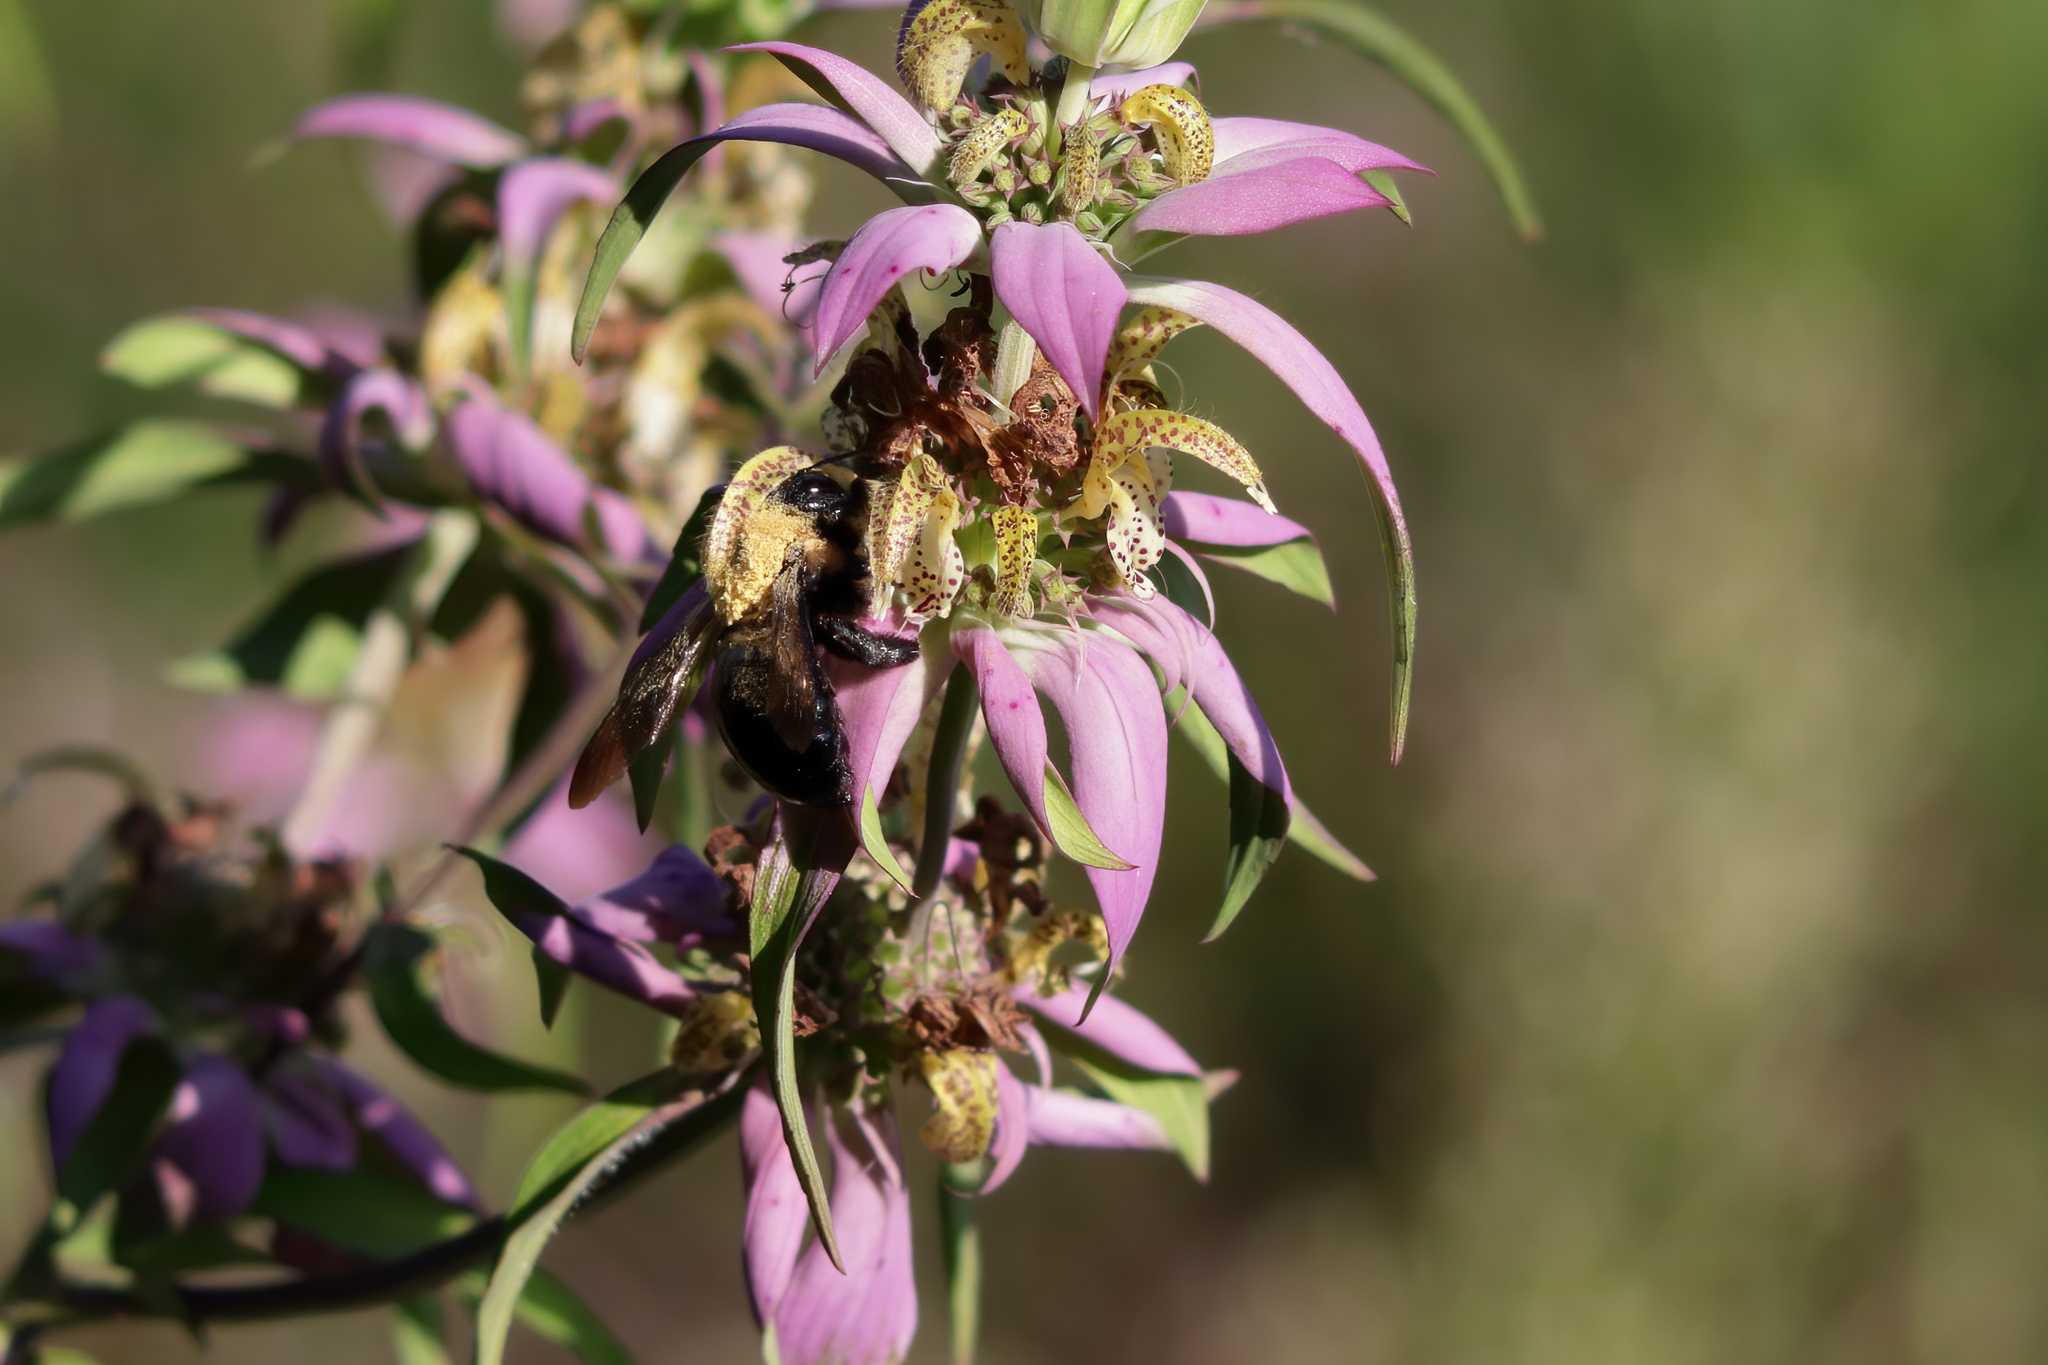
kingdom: Animalia
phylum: Arthropoda
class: Insecta
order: Hymenoptera
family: Apidae
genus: Xylocopa
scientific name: Xylocopa virginica
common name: Carpenter bee
